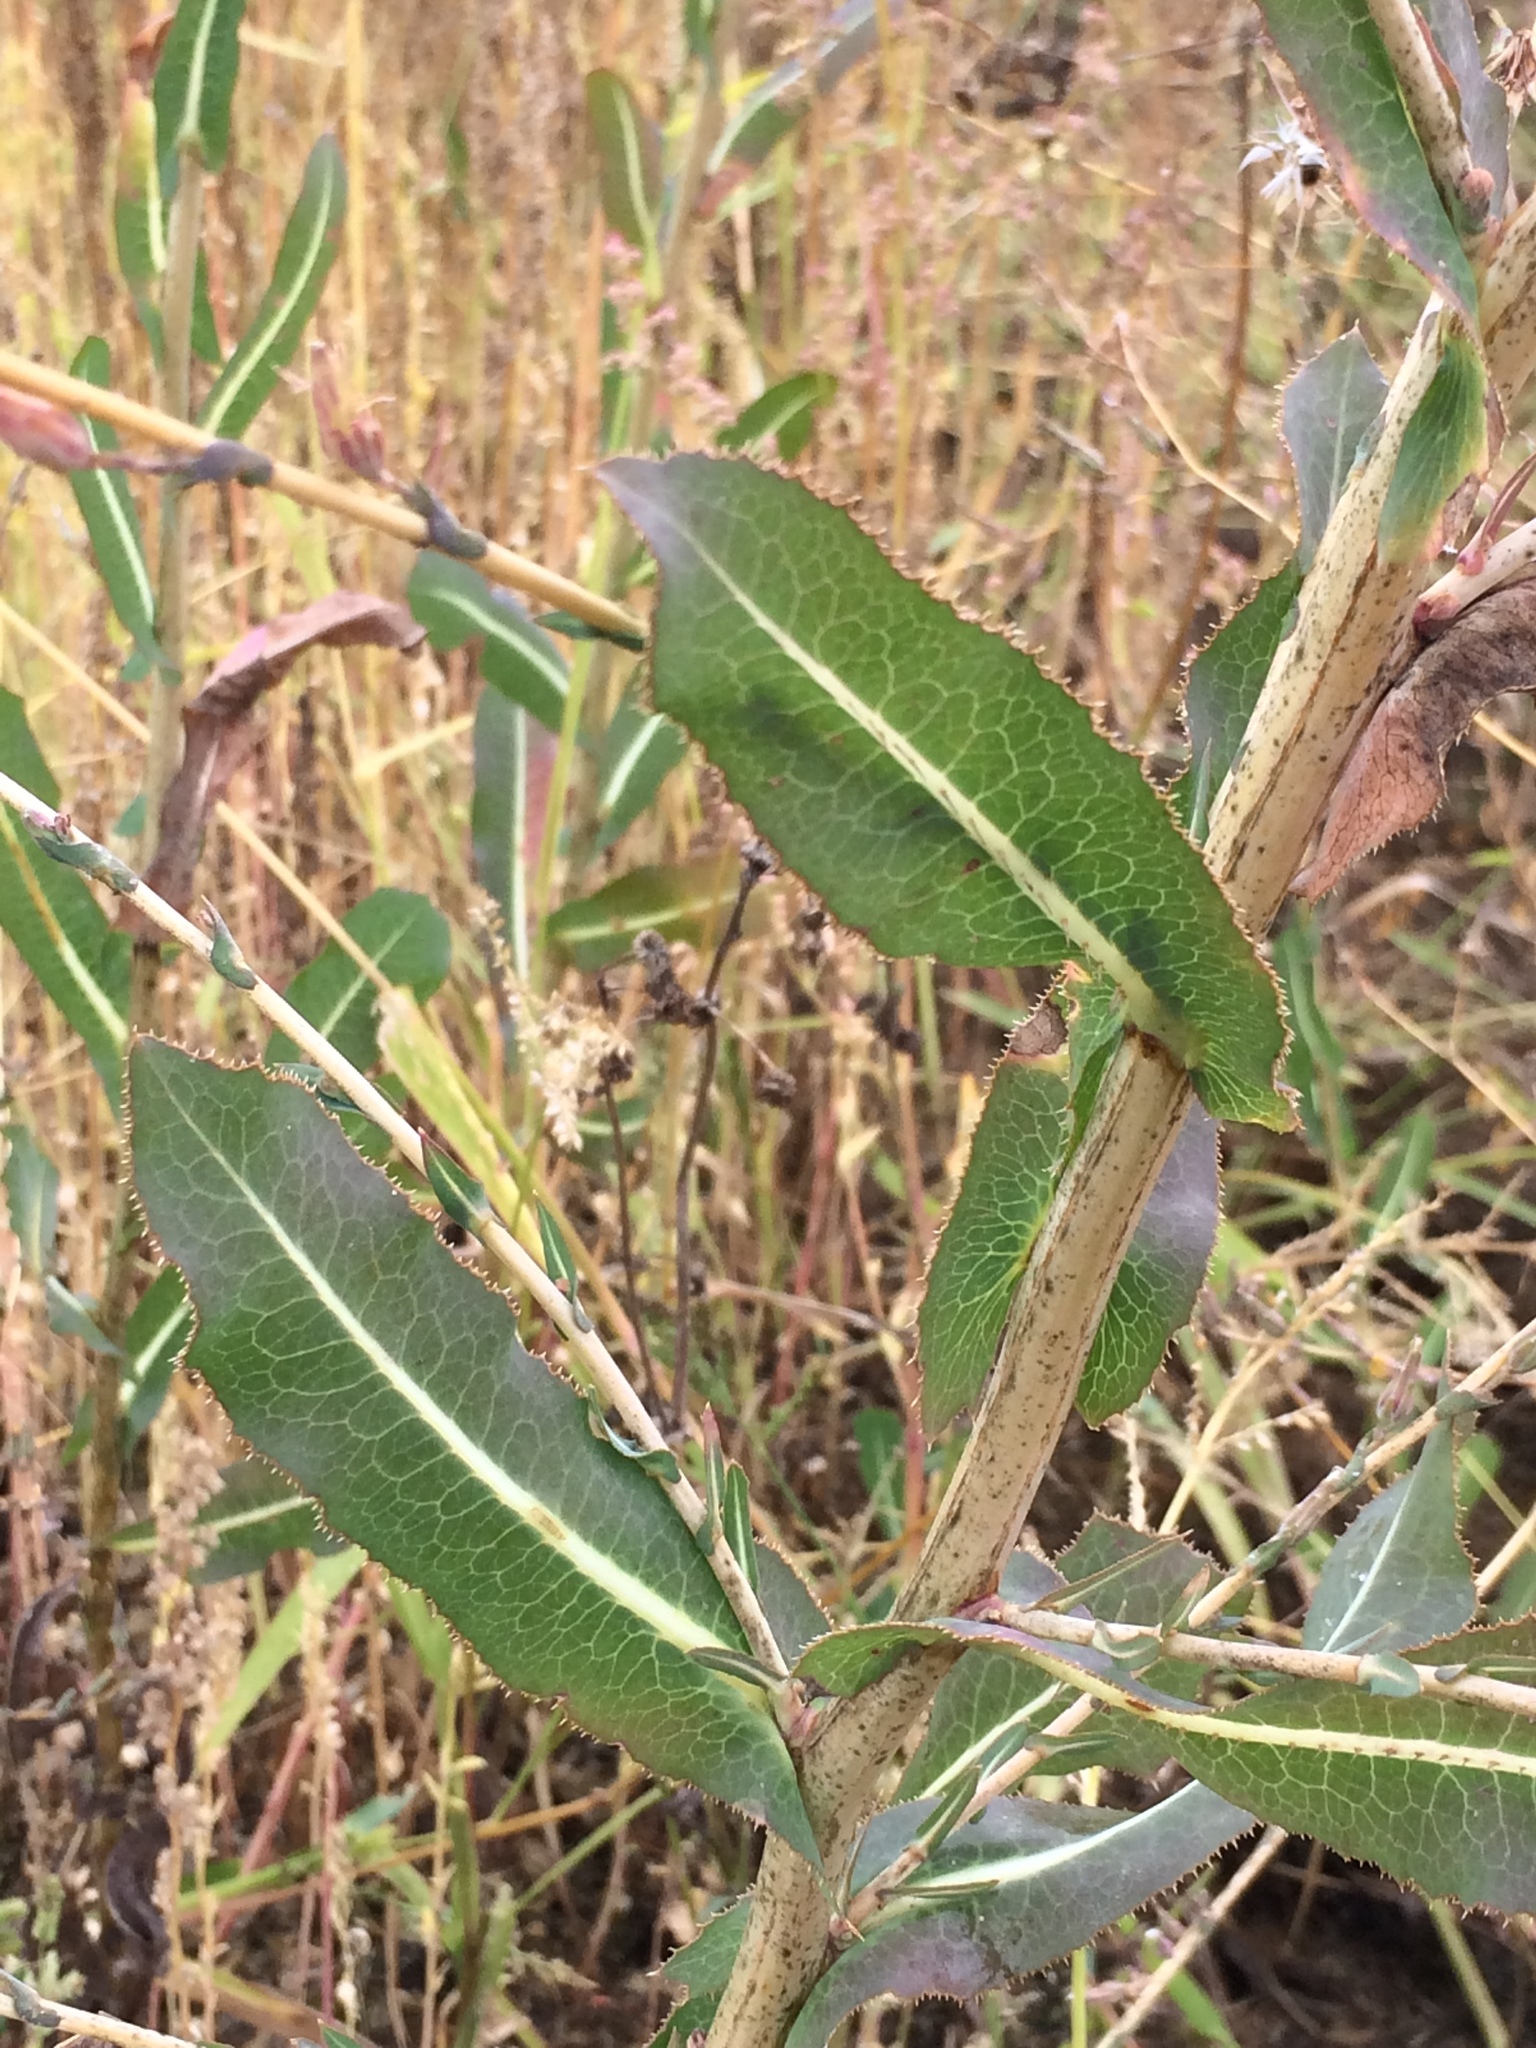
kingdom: Plantae
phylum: Tracheophyta
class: Magnoliopsida
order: Asterales
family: Asteraceae
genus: Lactuca
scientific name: Lactuca serriola
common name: Prickly lettuce
